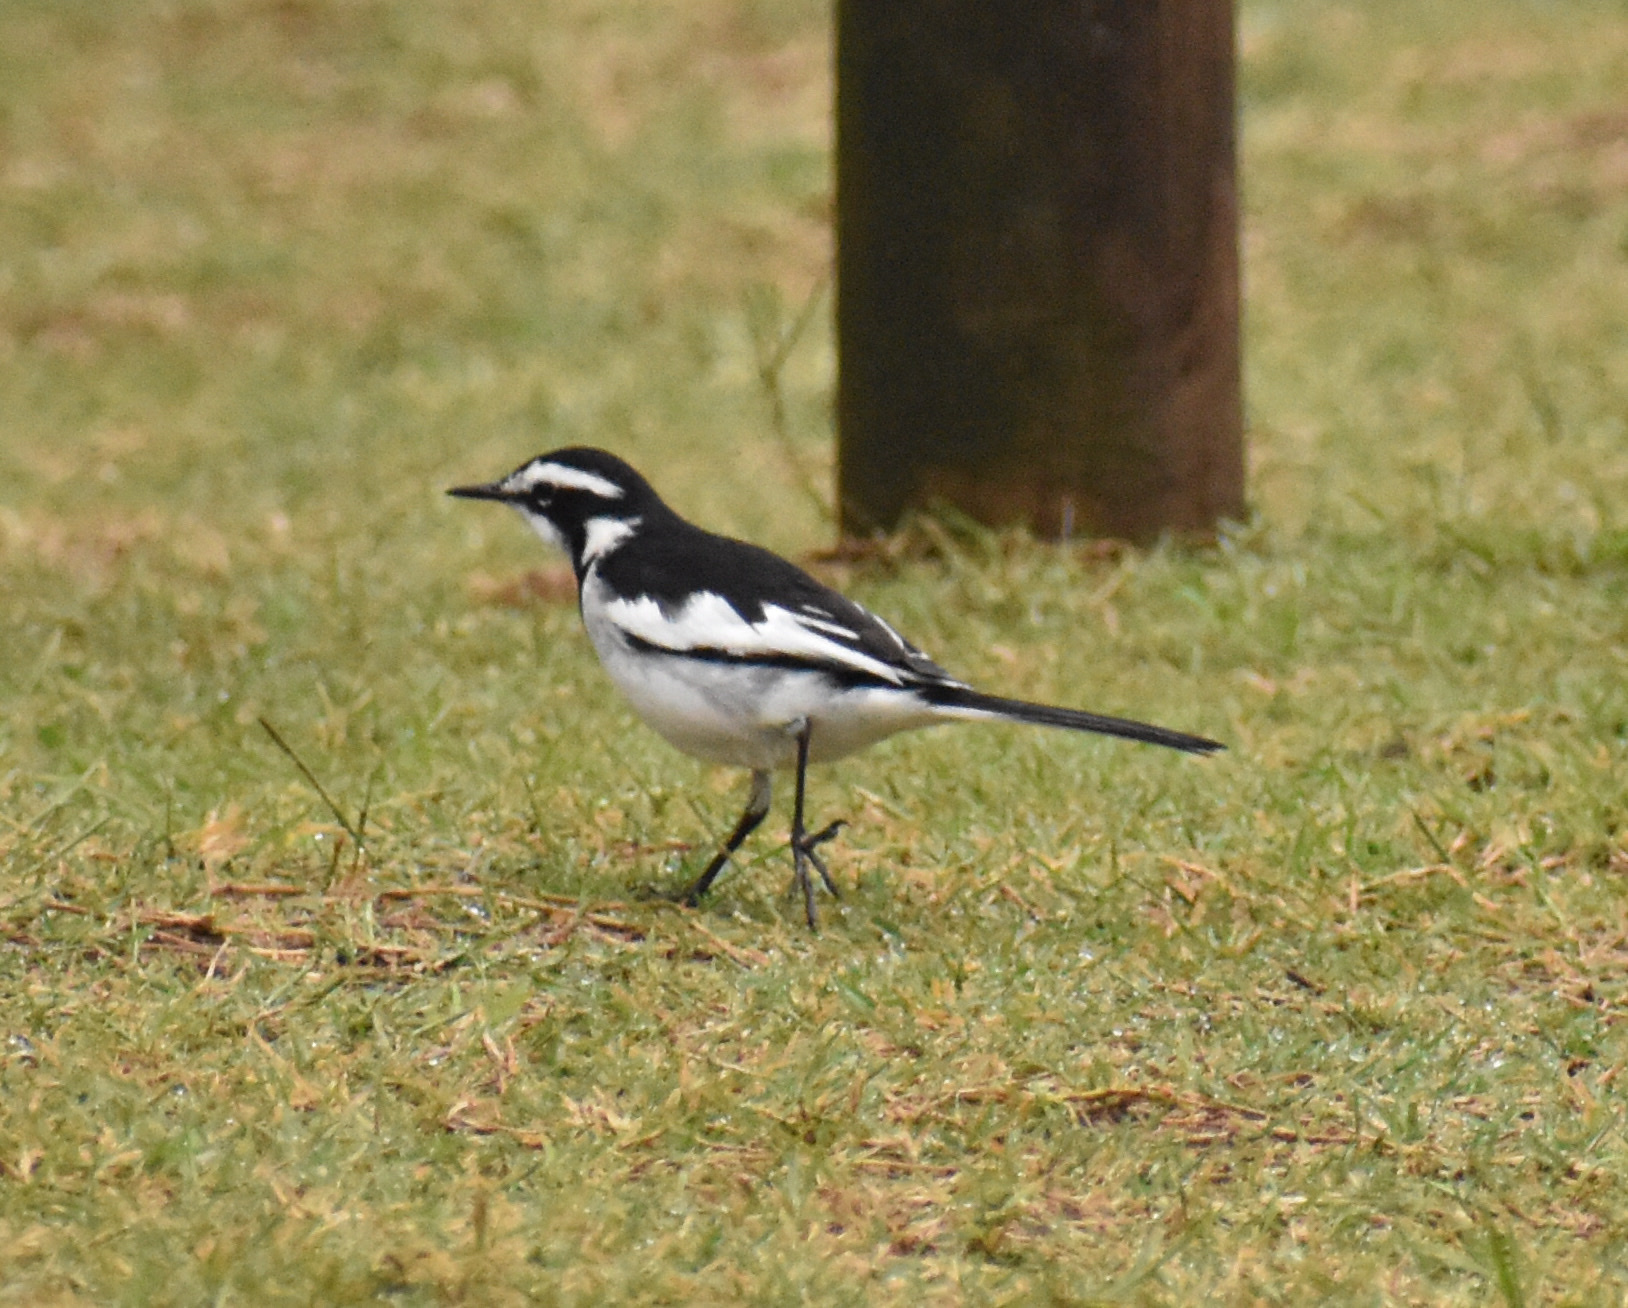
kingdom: Animalia
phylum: Chordata
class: Aves
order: Passeriformes
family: Motacillidae
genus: Motacilla
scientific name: Motacilla aguimp
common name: African pied wagtail
